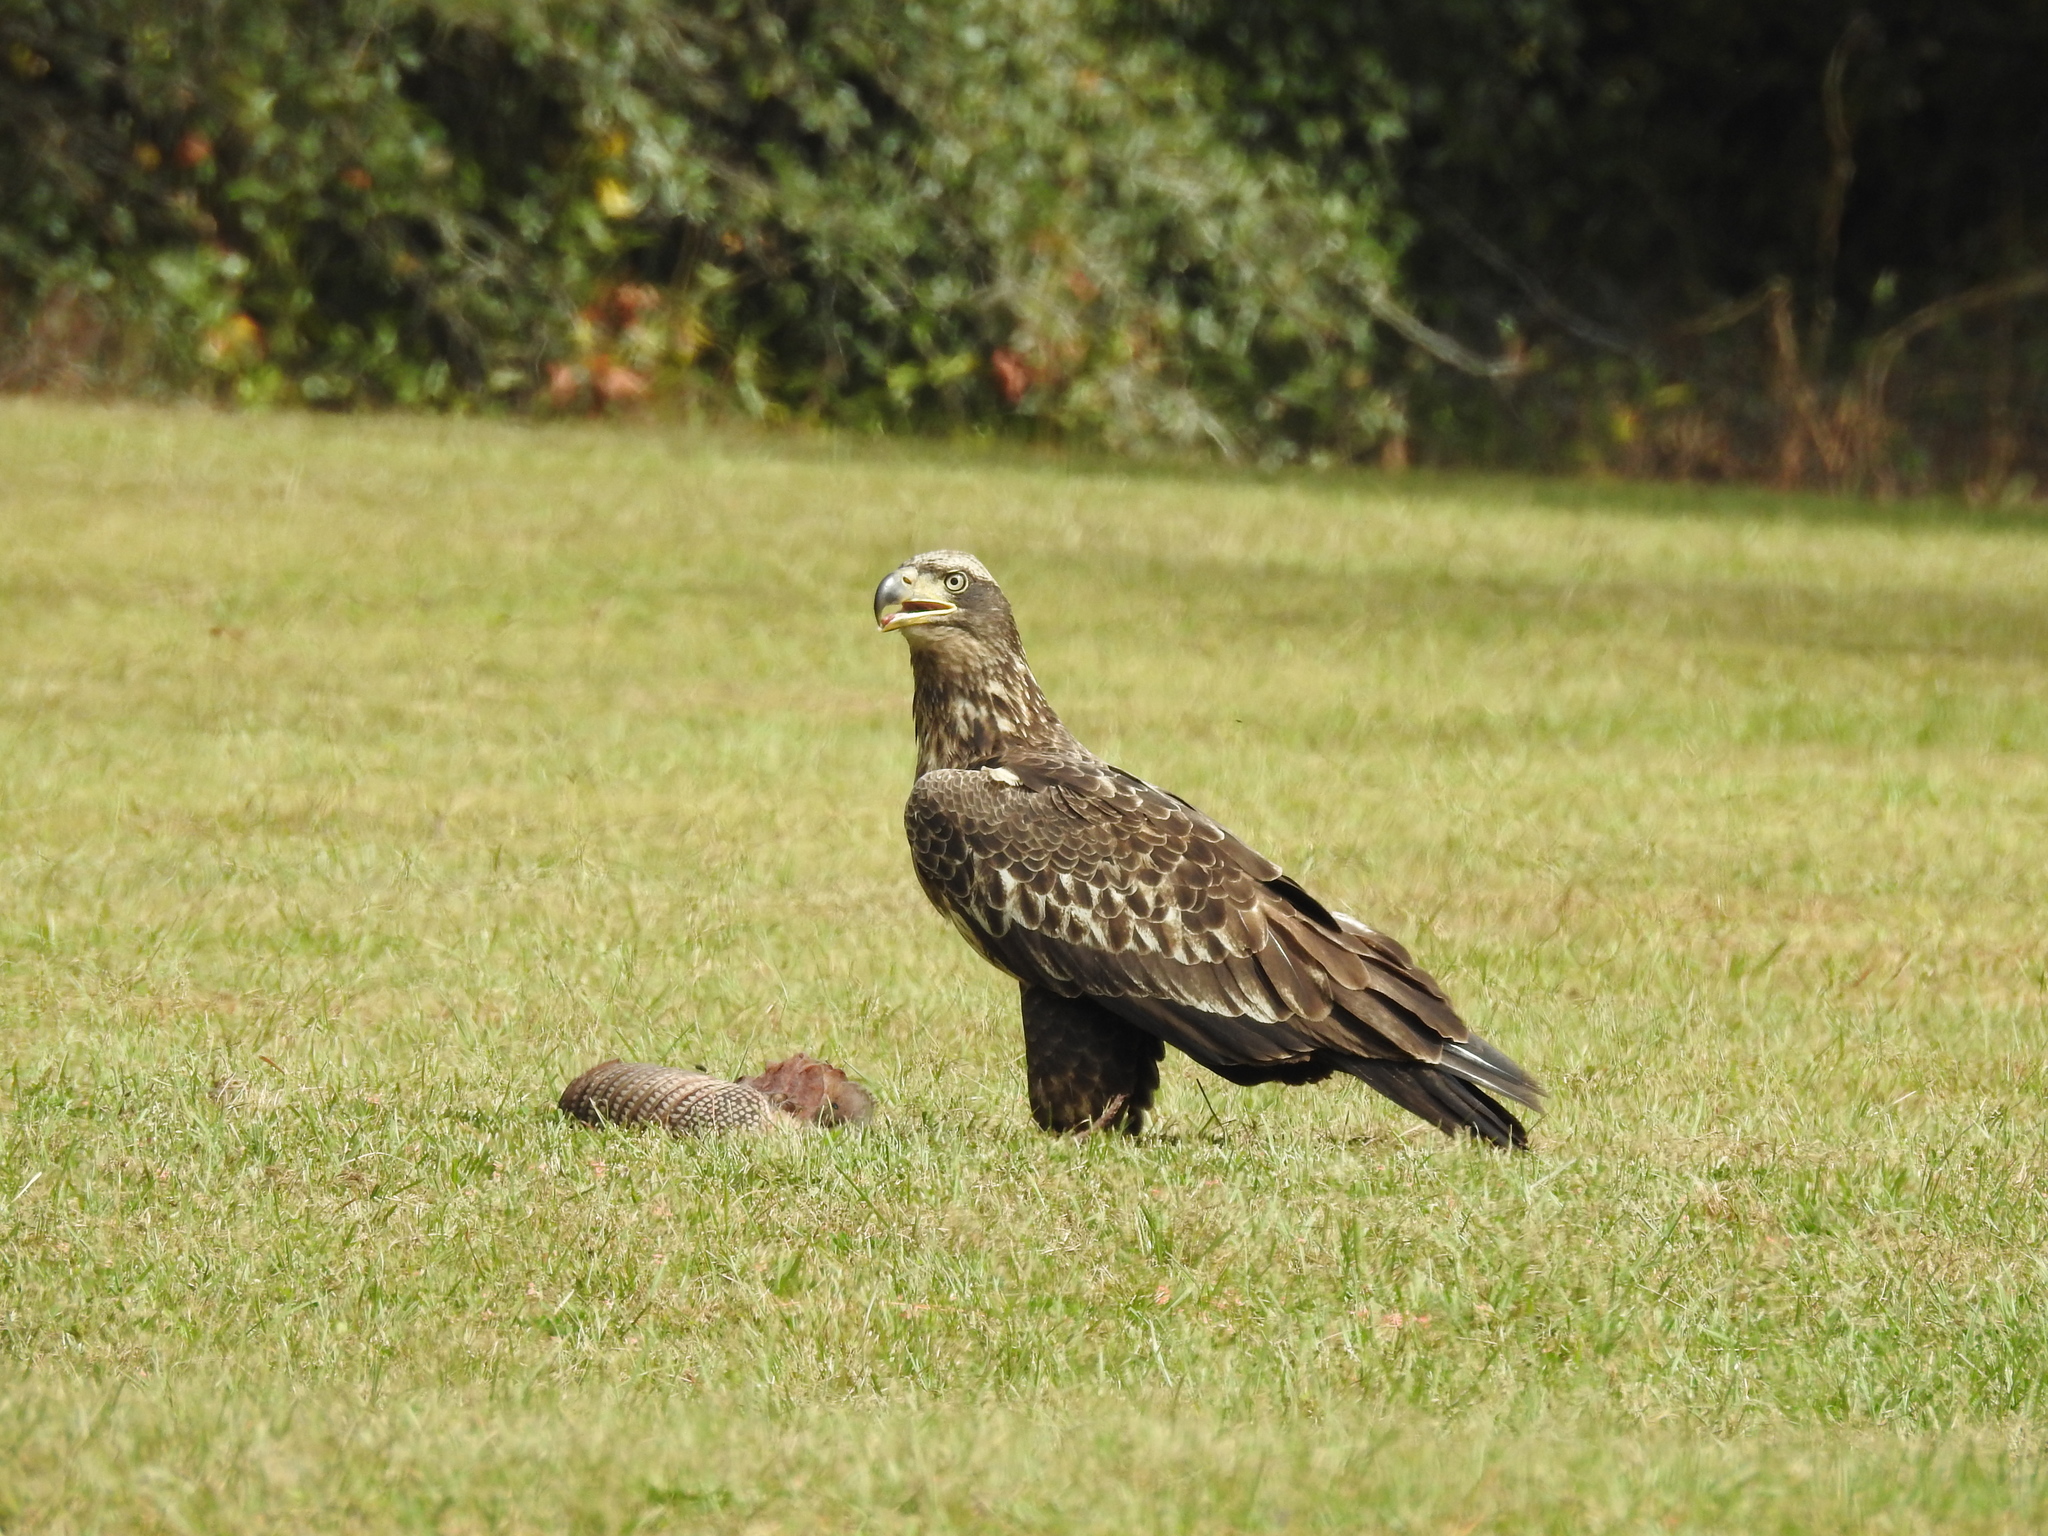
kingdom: Animalia
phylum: Chordata
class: Aves
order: Accipitriformes
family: Accipitridae
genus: Haliaeetus
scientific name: Haliaeetus leucocephalus
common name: Bald eagle
